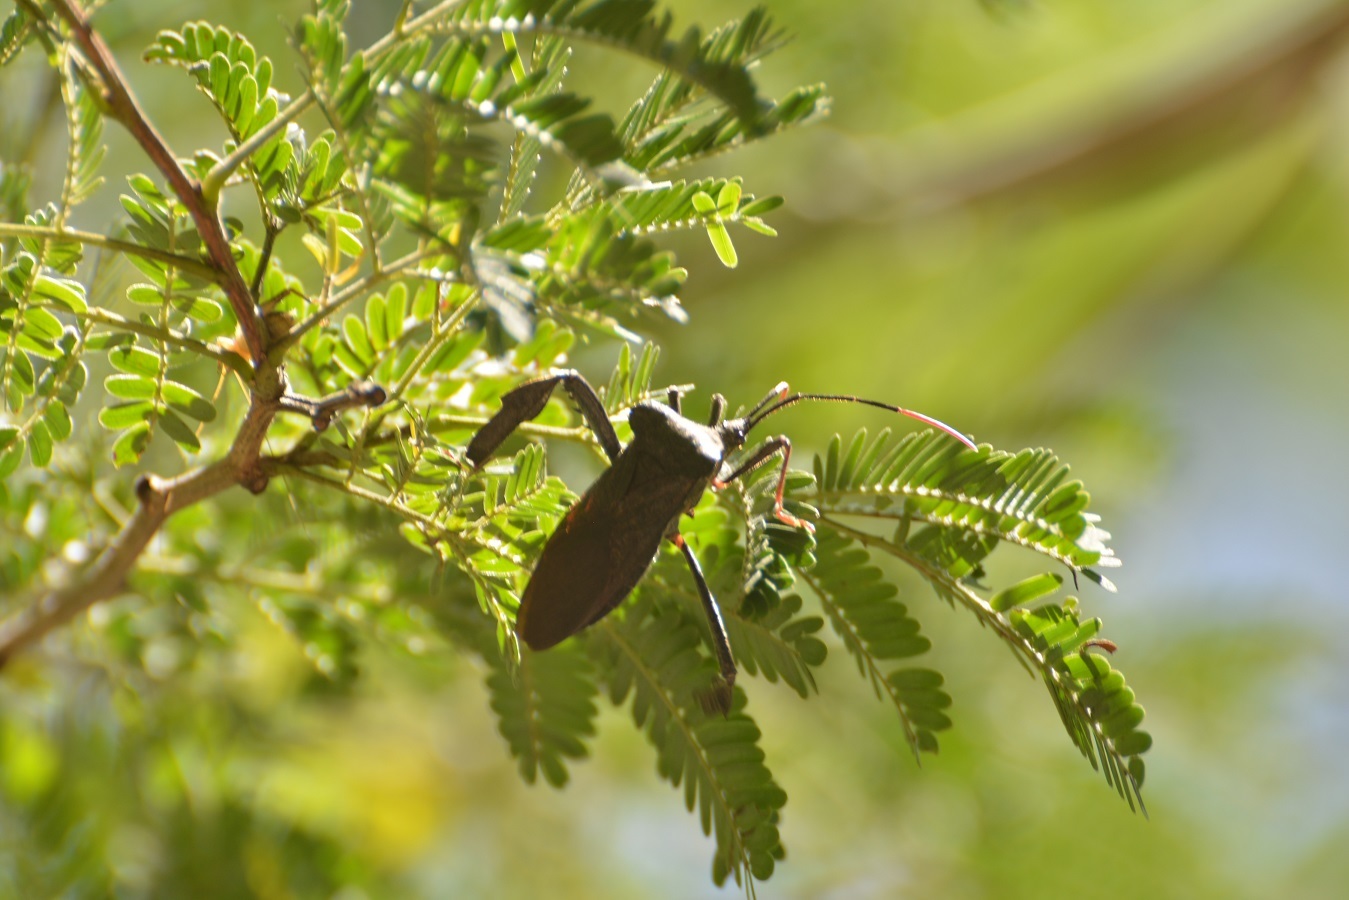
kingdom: Animalia
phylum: Arthropoda
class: Insecta
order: Hemiptera
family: Coreidae
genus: Acanthocephala
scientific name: Acanthocephala alata
